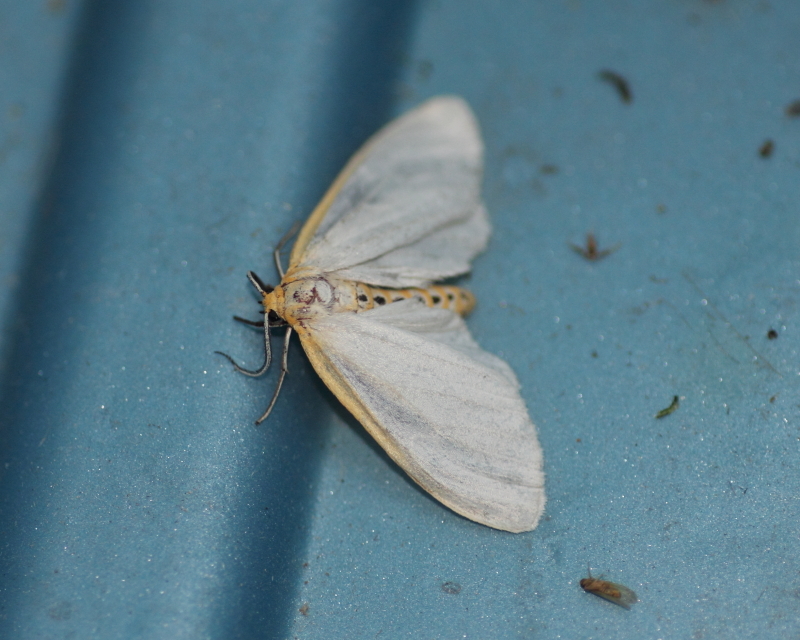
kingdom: Animalia
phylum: Arthropoda
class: Insecta
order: Lepidoptera
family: Erebidae
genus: Cycnia
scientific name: Cycnia tenera
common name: Delicate cycnia moth
